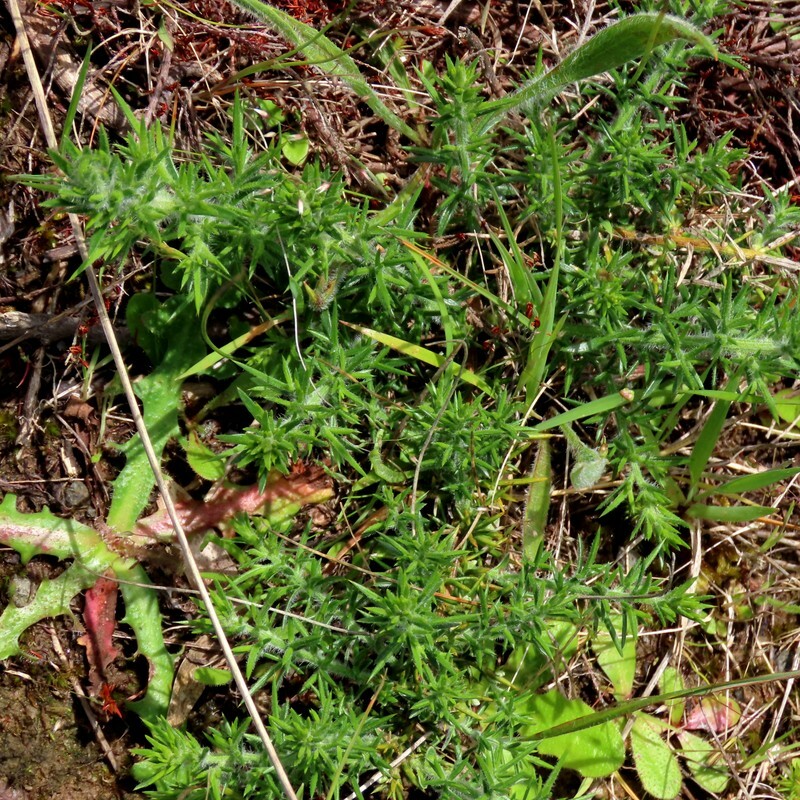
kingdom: Plantae
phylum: Tracheophyta
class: Magnoliopsida
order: Fabales
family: Fabaceae
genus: Ulex
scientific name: Ulex europaeus
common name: Common gorse
